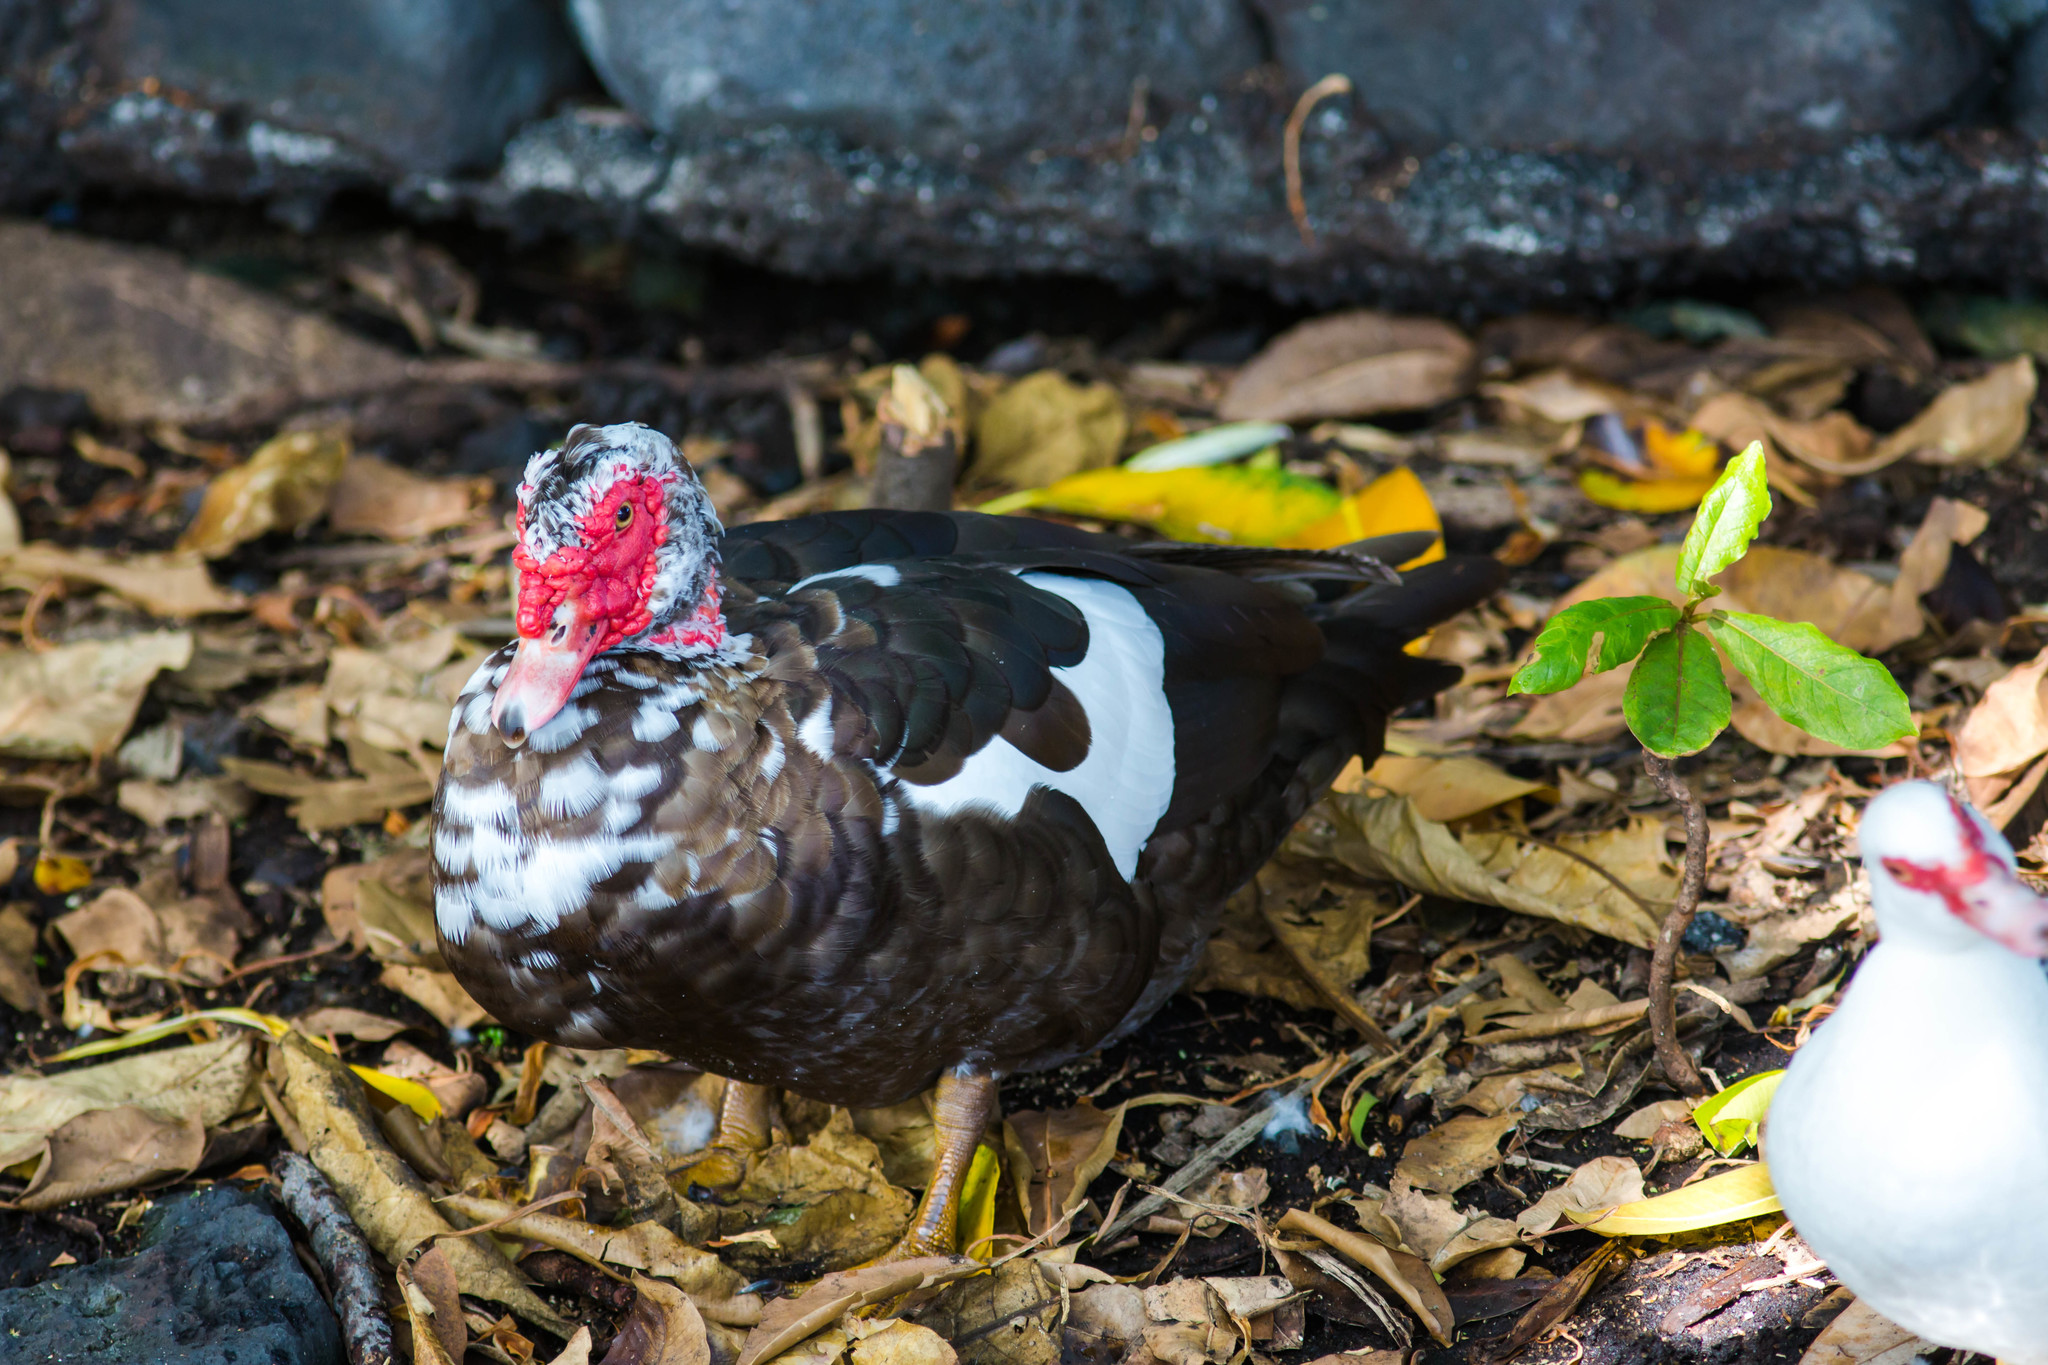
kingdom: Animalia
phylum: Chordata
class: Aves
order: Anseriformes
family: Anatidae
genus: Cairina
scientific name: Cairina moschata
